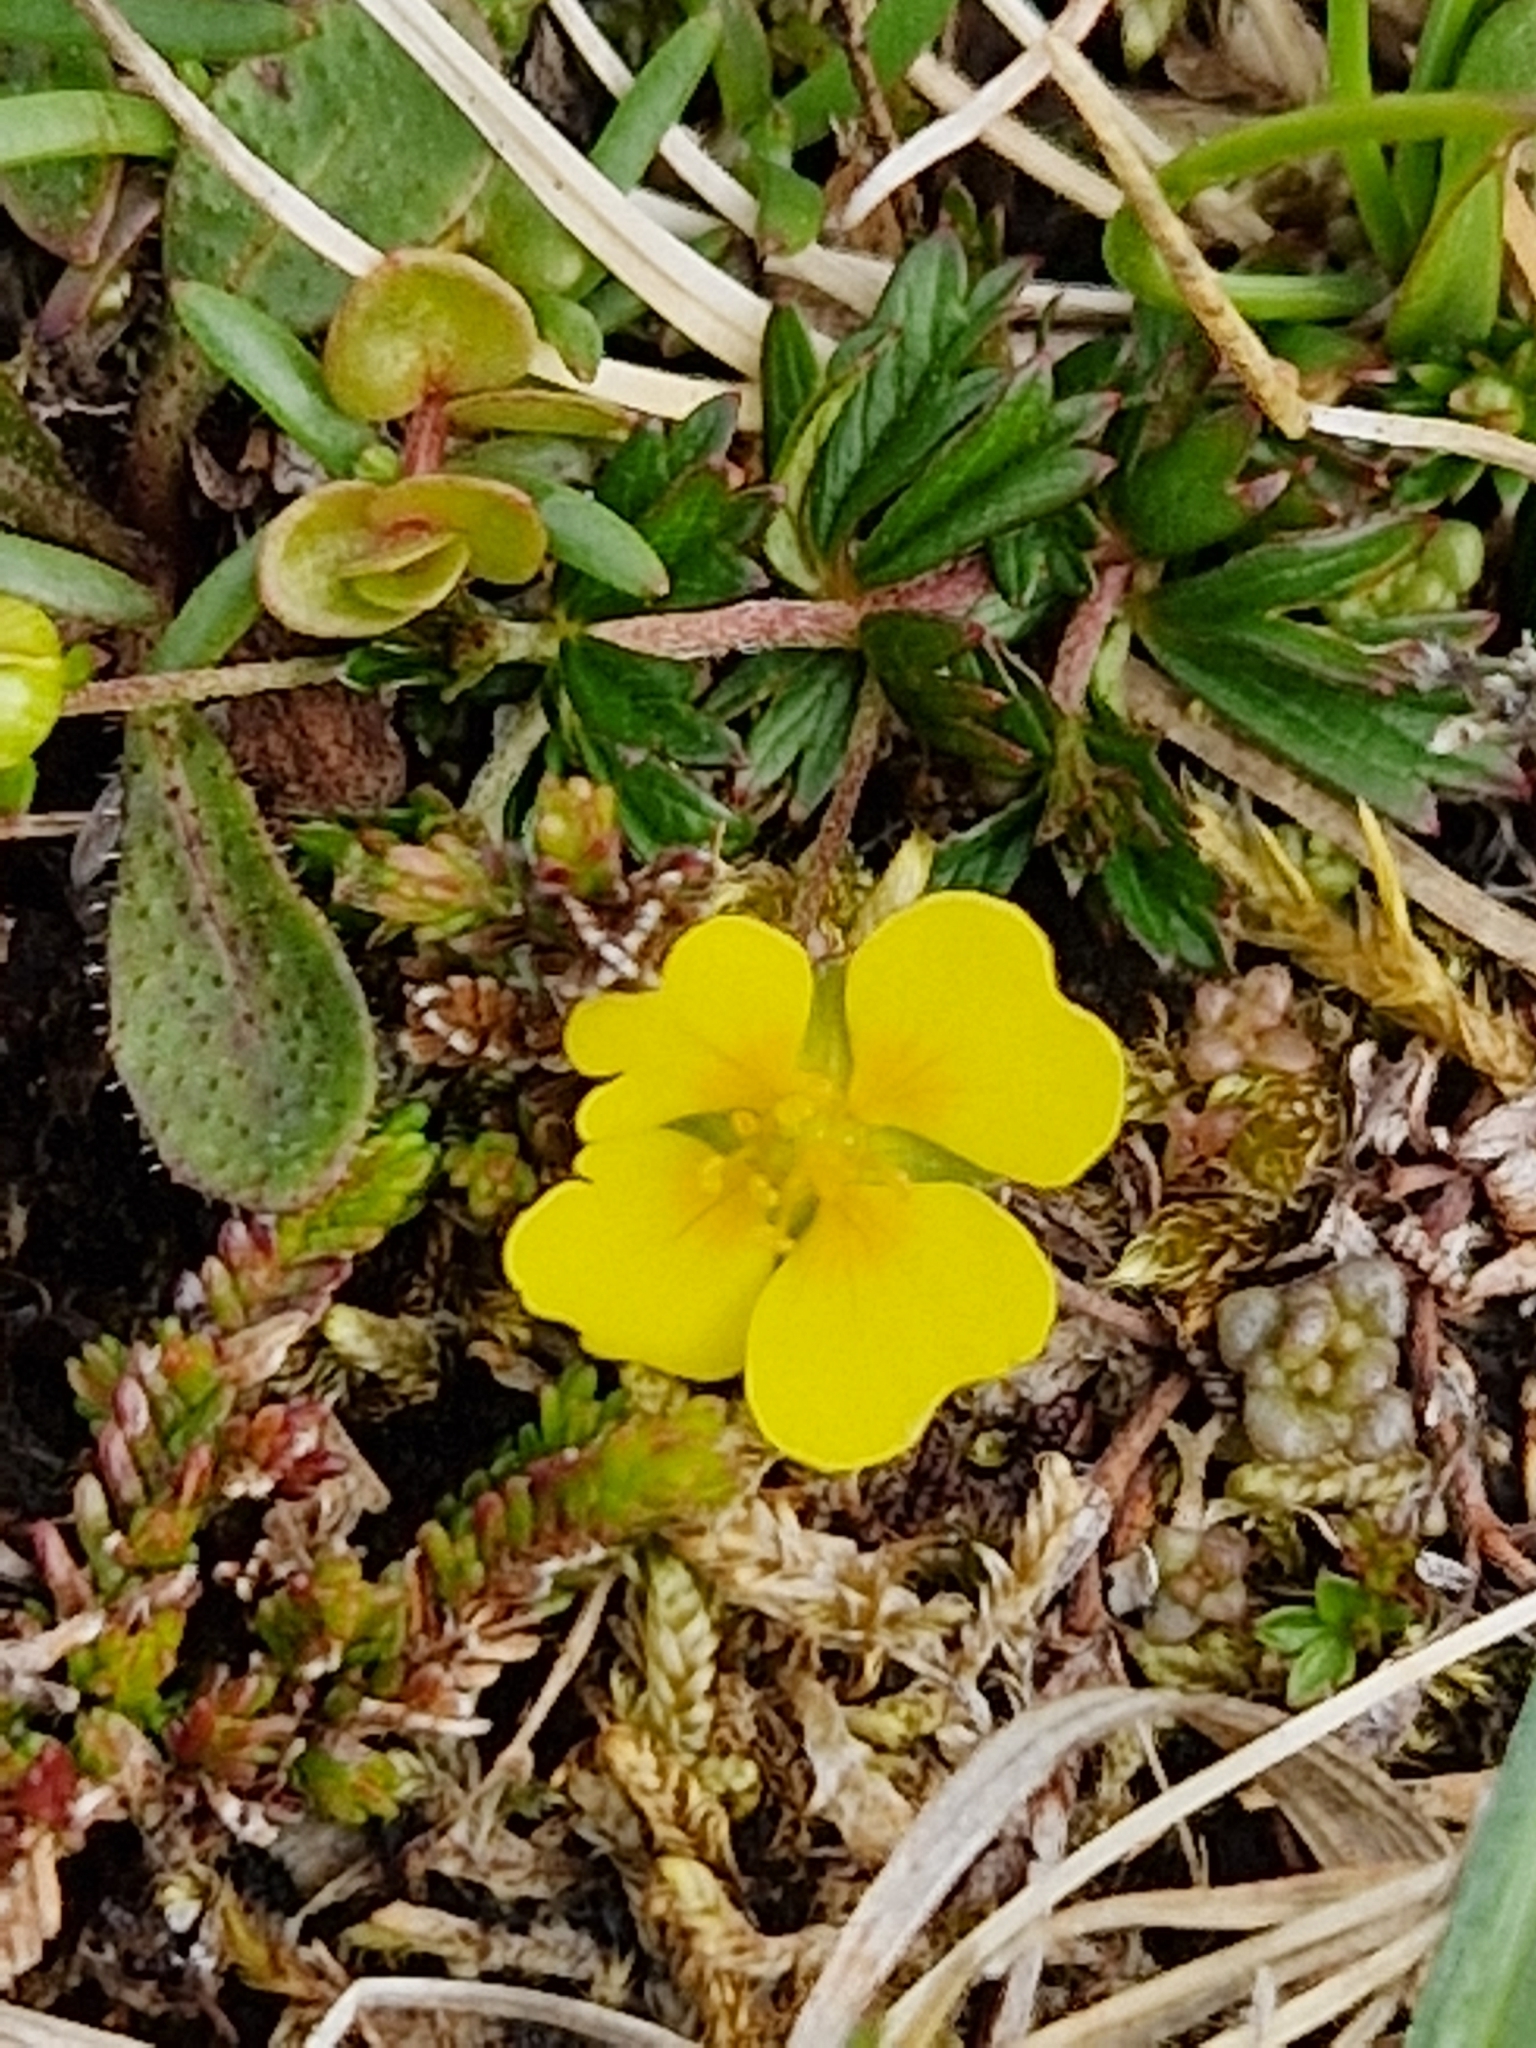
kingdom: Plantae
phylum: Tracheophyta
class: Magnoliopsida
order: Rosales
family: Rosaceae
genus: Potentilla
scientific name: Potentilla erecta
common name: Tormentil
